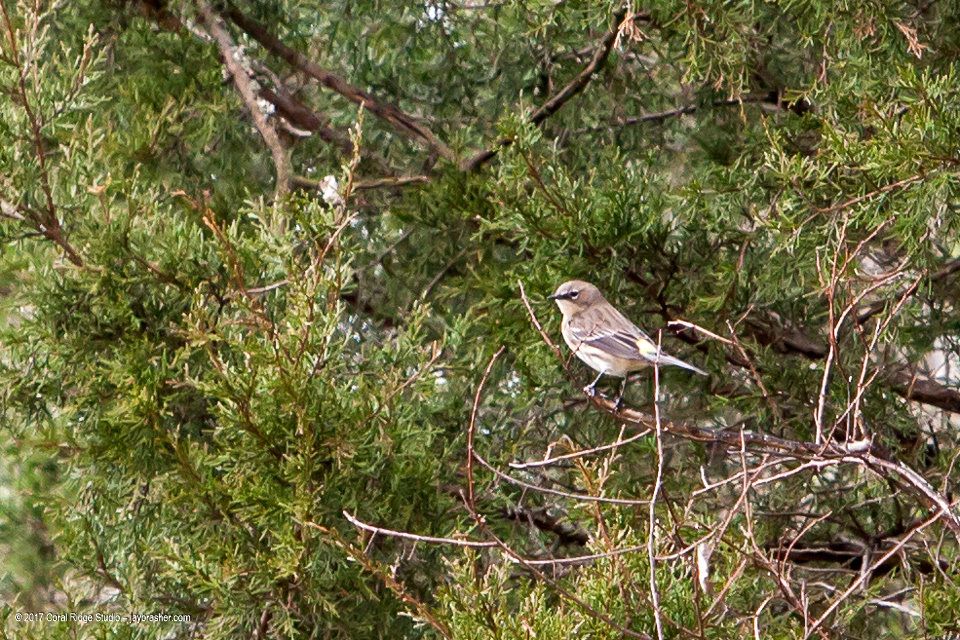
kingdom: Animalia
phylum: Chordata
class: Aves
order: Passeriformes
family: Parulidae
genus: Setophaga
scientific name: Setophaga coronata
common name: Myrtle warbler
